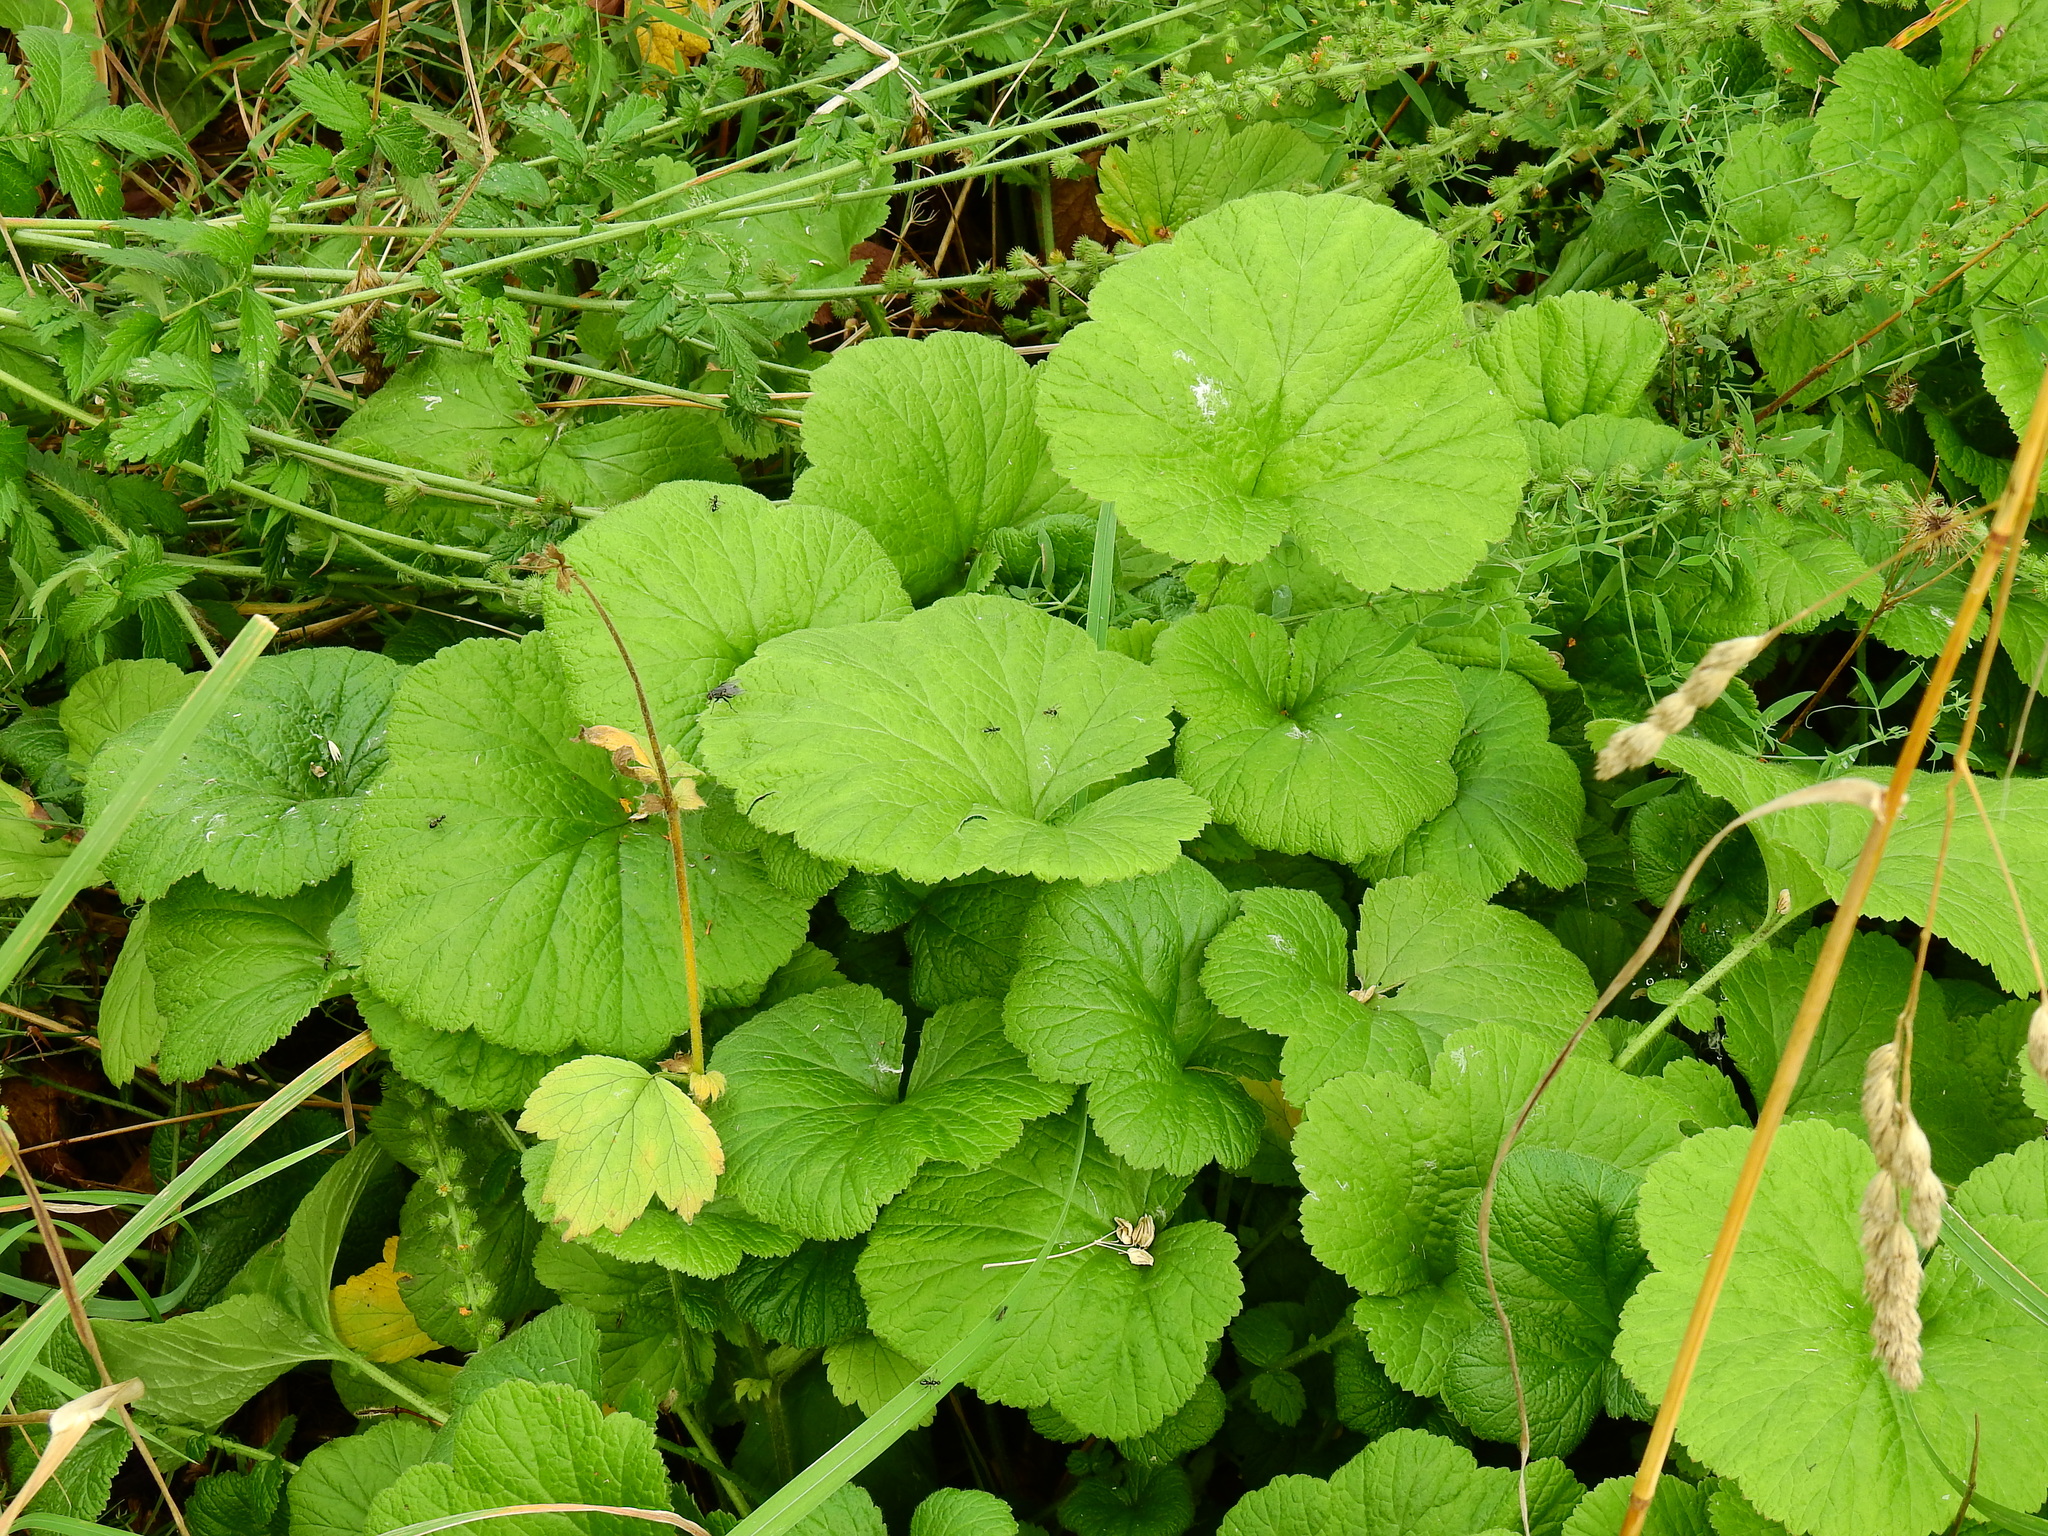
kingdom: Plantae
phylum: Tracheophyta
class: Magnoliopsida
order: Rosales
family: Rosaceae
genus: Geum
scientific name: Geum rivale
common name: Water avens
